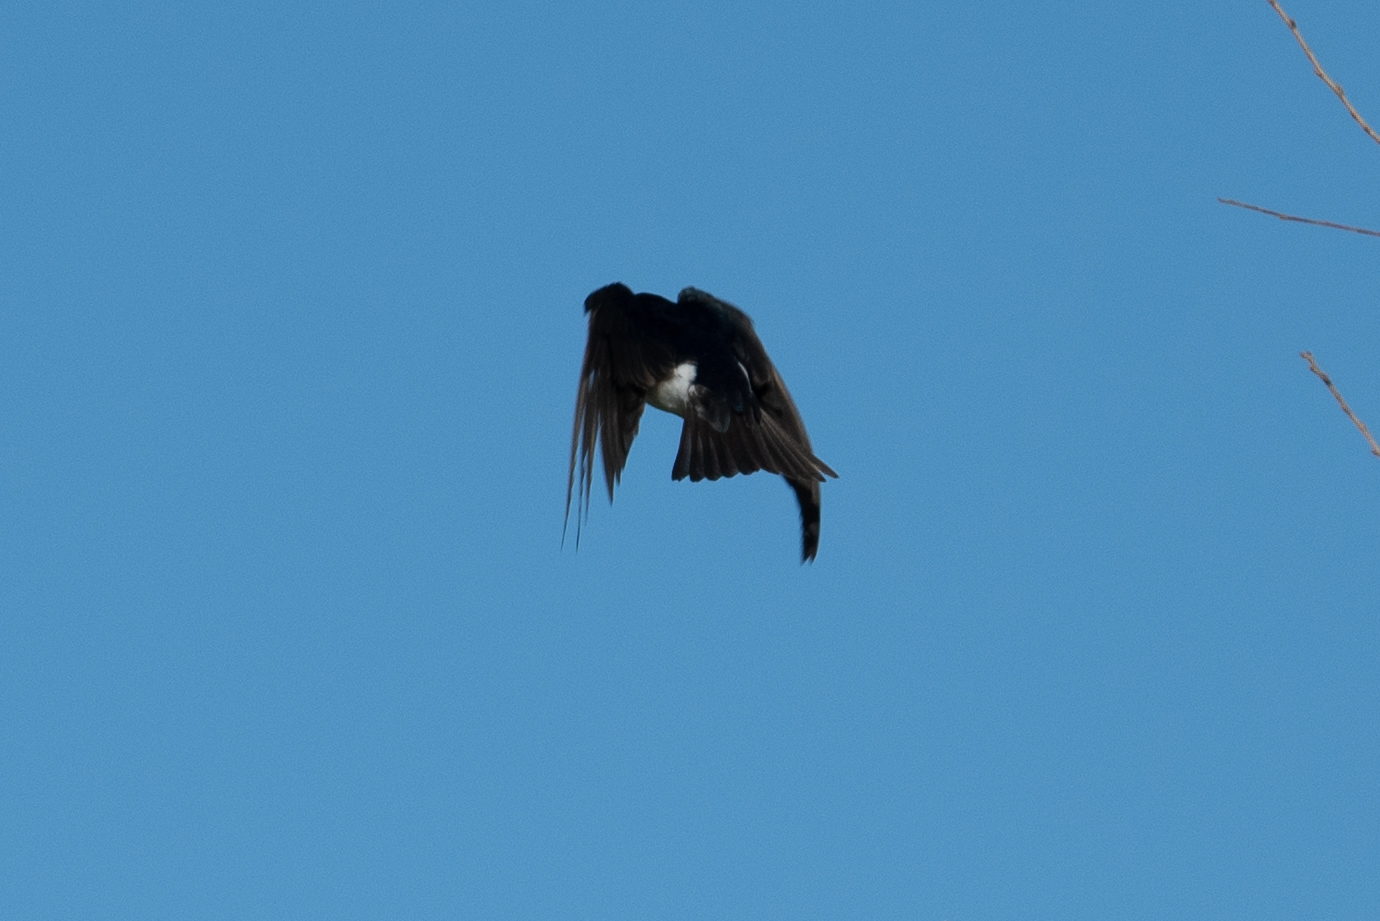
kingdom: Animalia
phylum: Chordata
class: Aves
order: Passeriformes
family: Hirundinidae
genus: Tachycineta
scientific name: Tachycineta bicolor
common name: Tree swallow
